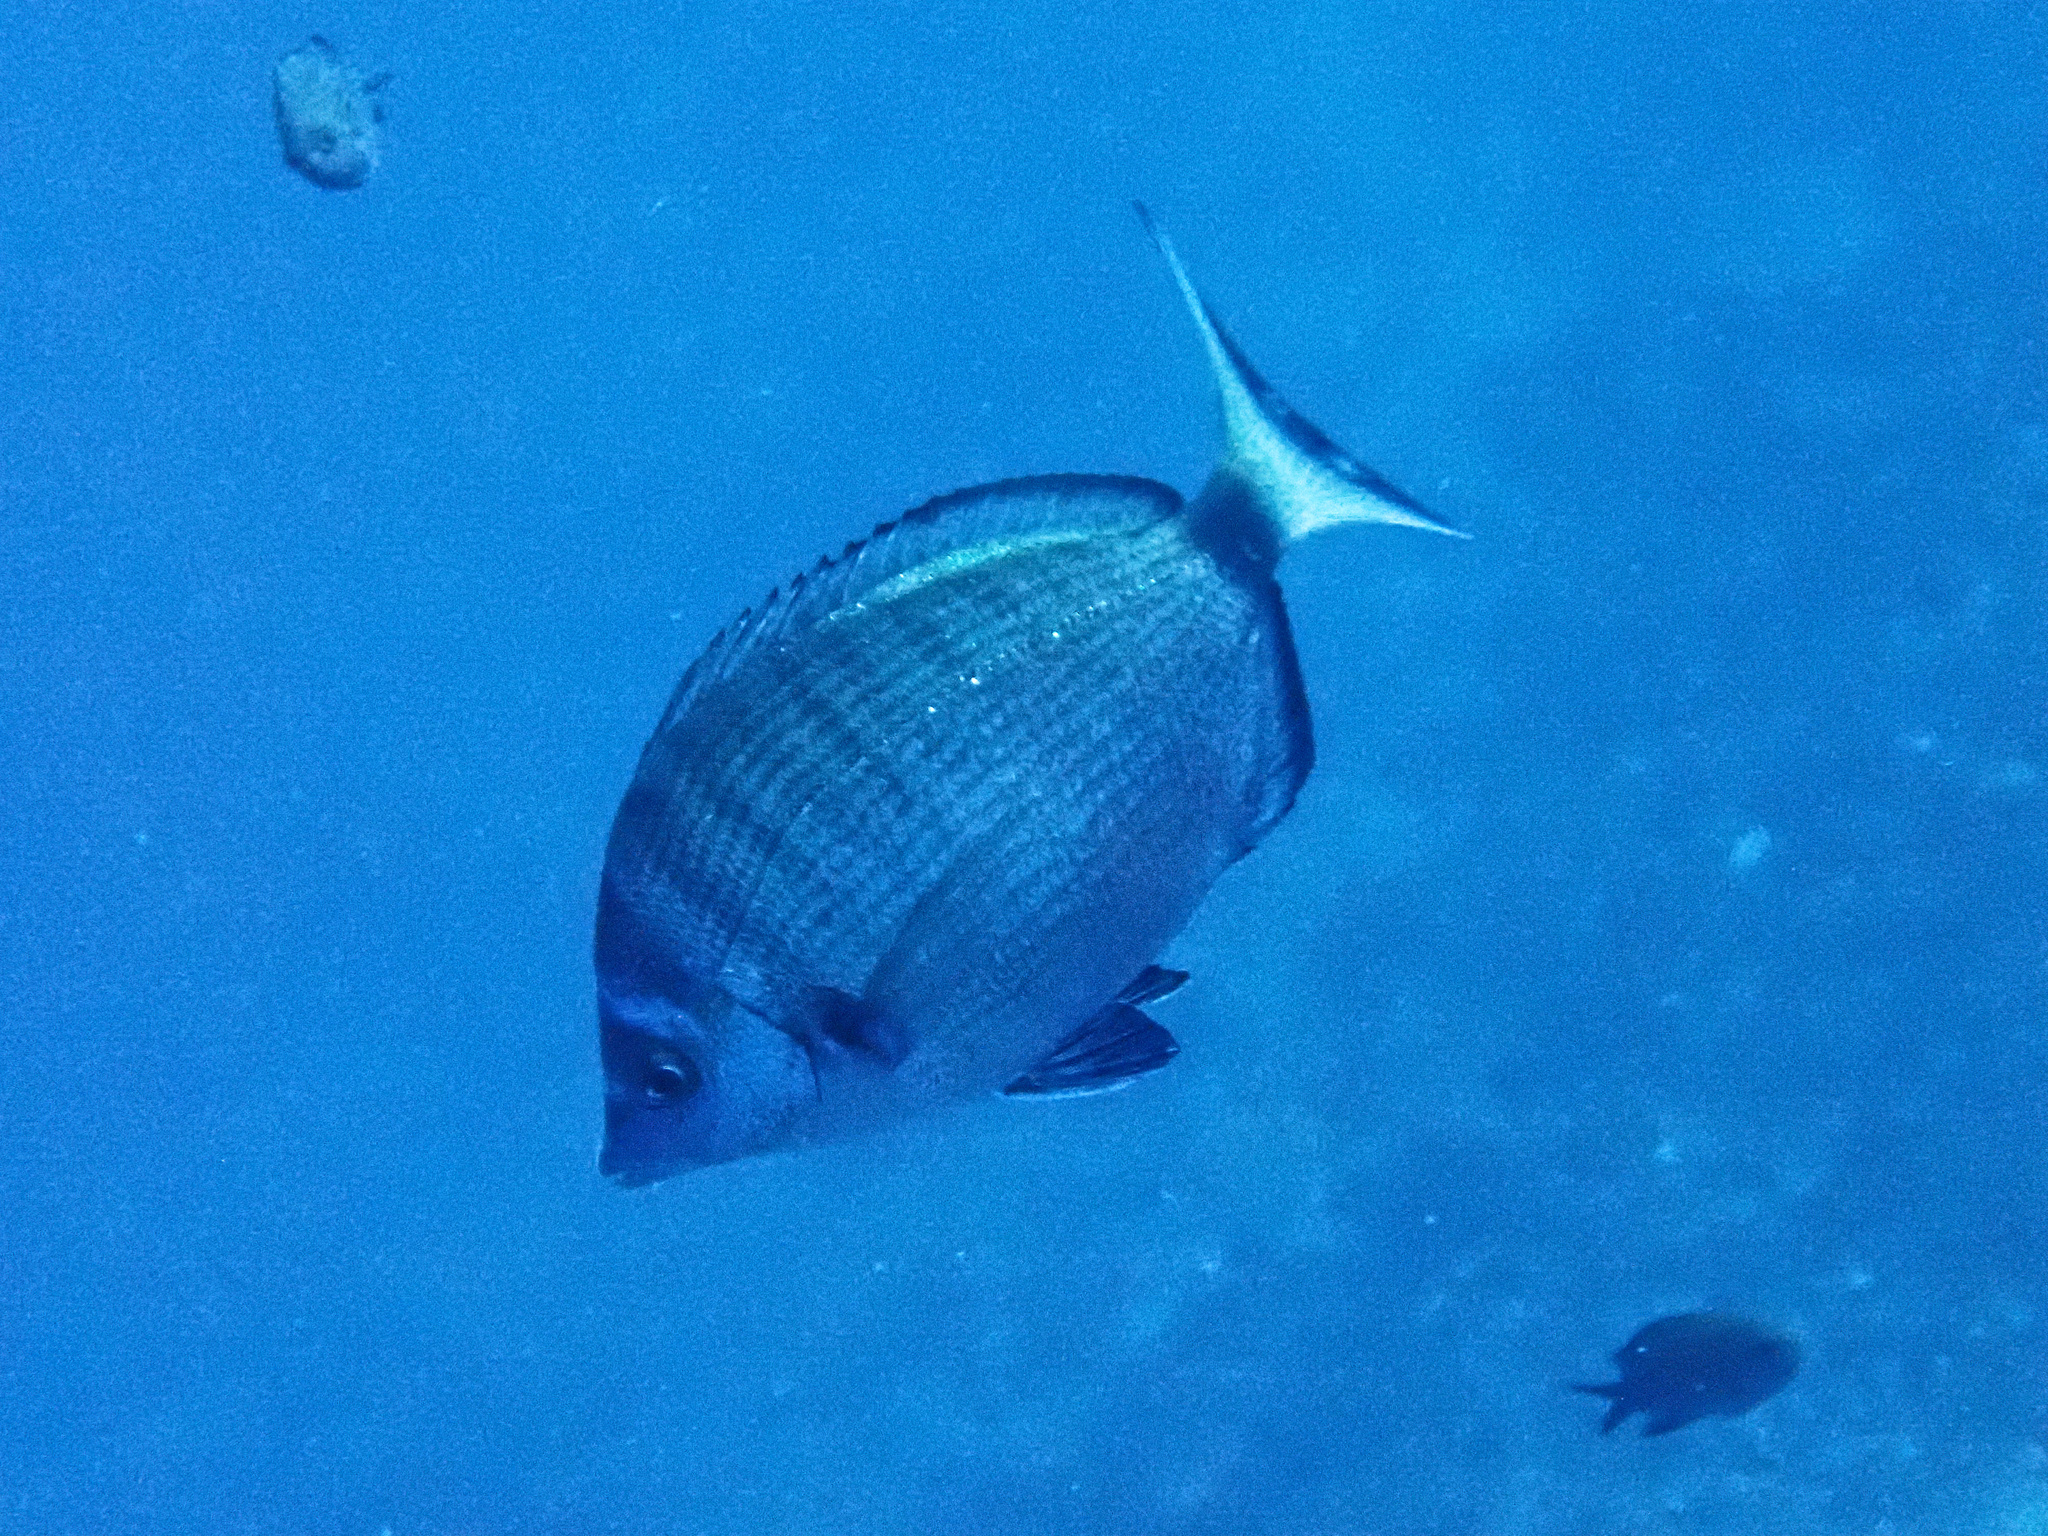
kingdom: Animalia
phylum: Chordata
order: Perciformes
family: Sparidae
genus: Diplodus
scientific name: Diplodus puntazzo
